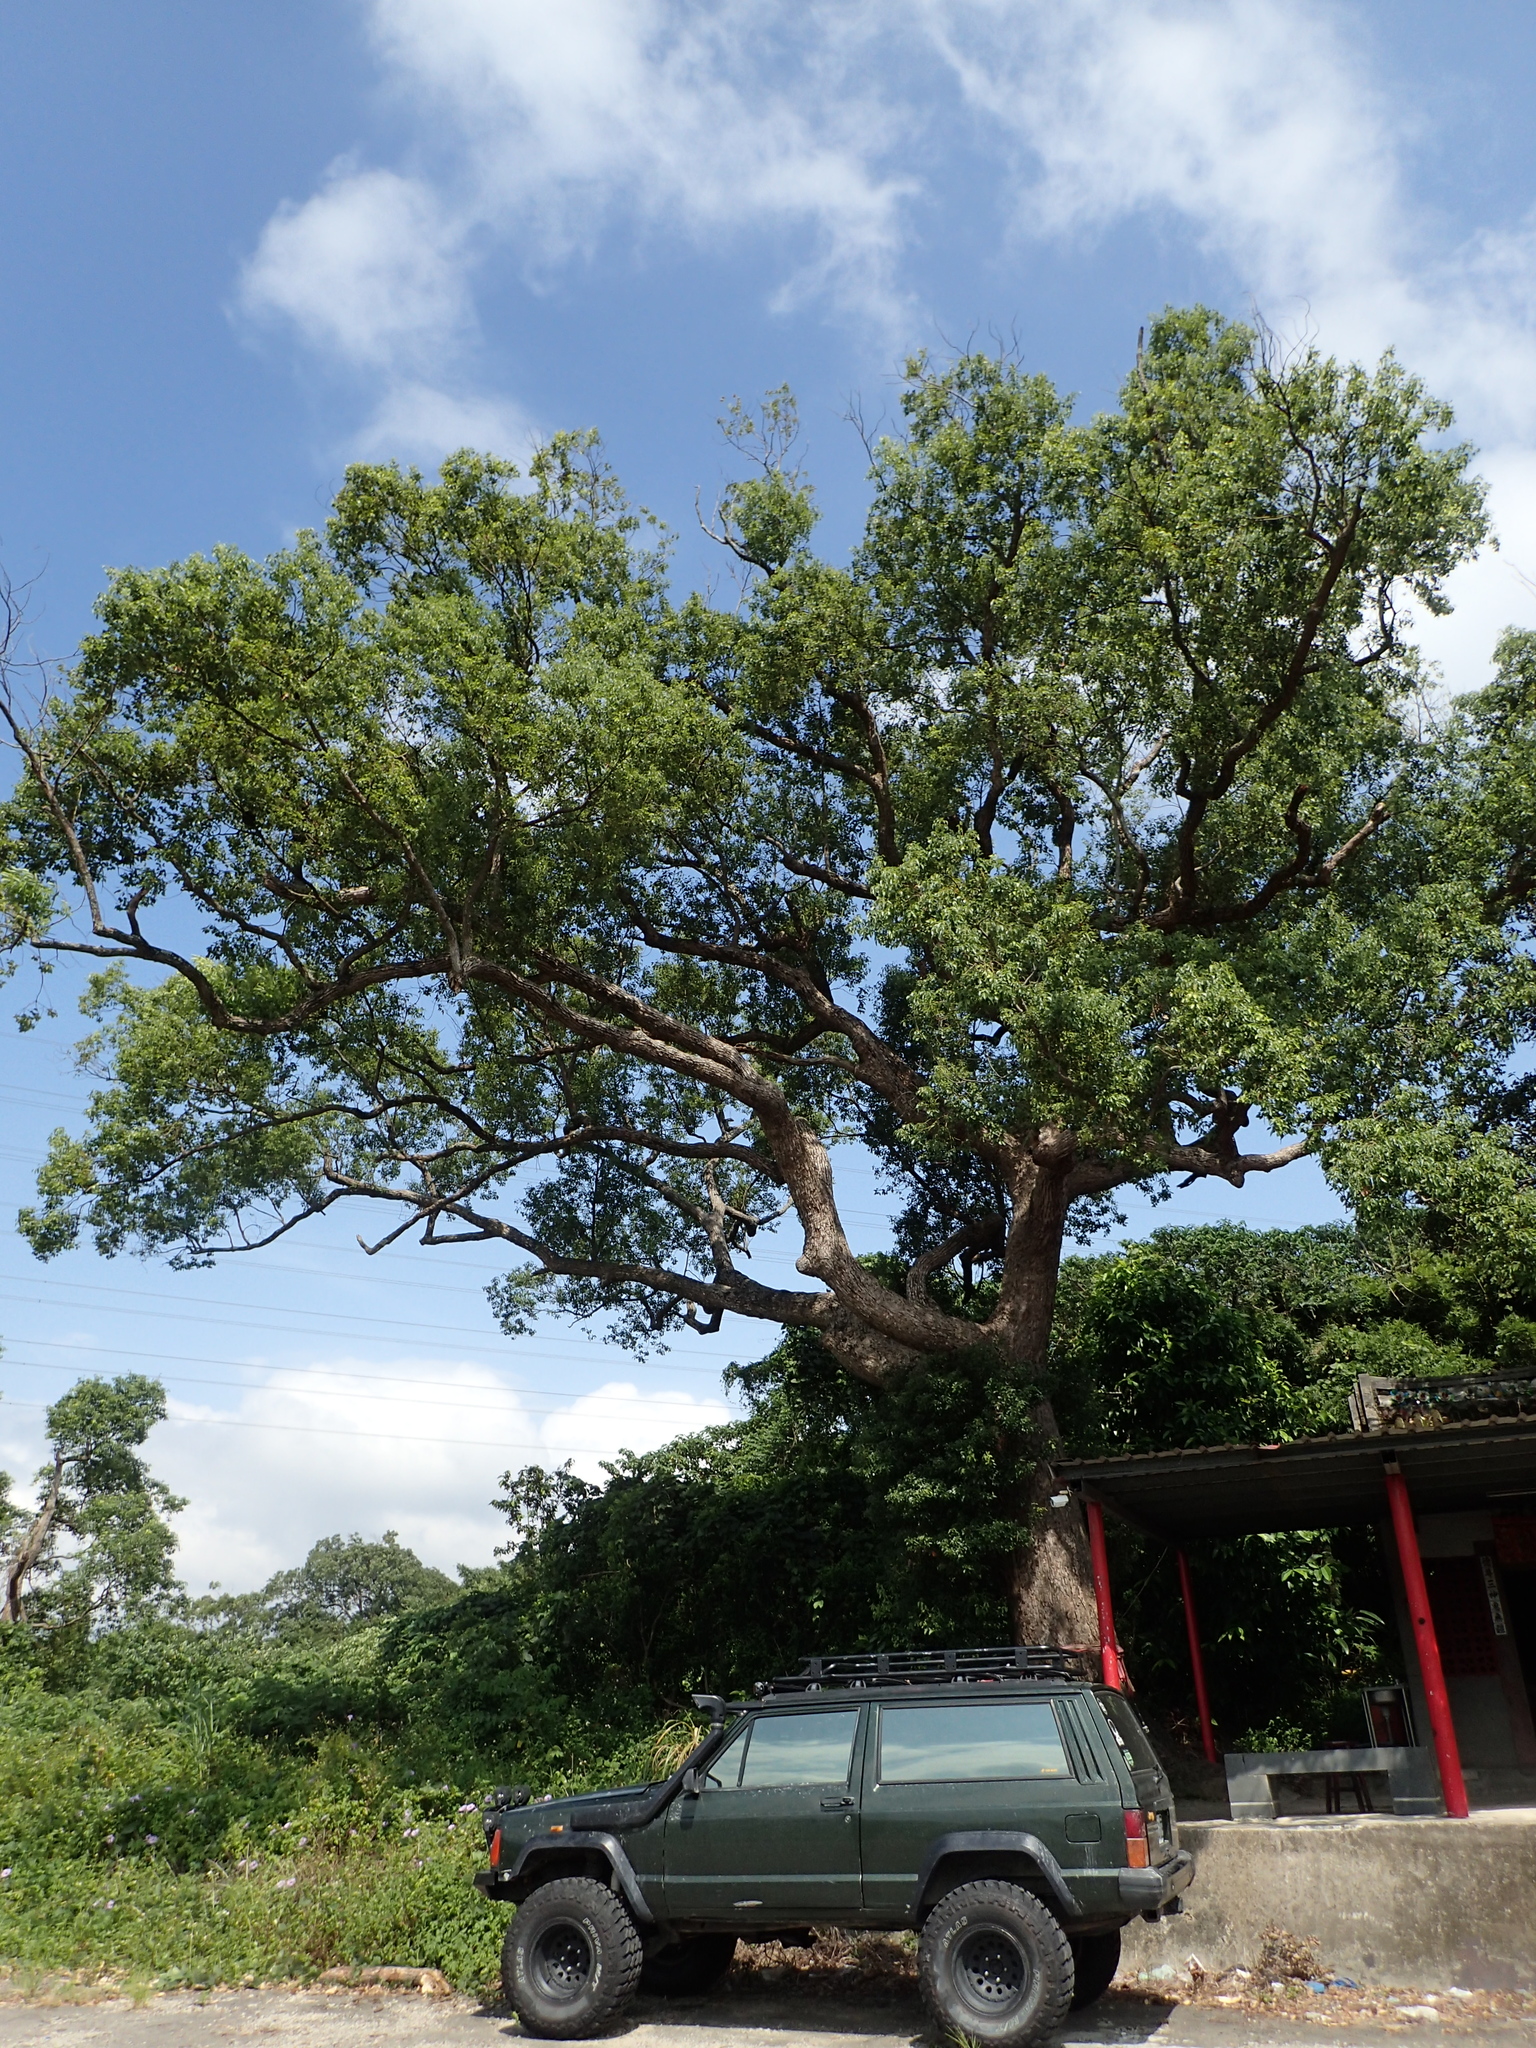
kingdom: Plantae
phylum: Tracheophyta
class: Magnoliopsida
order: Laurales
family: Lauraceae
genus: Cinnamomum
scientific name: Cinnamomum camphora
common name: Camphortree
